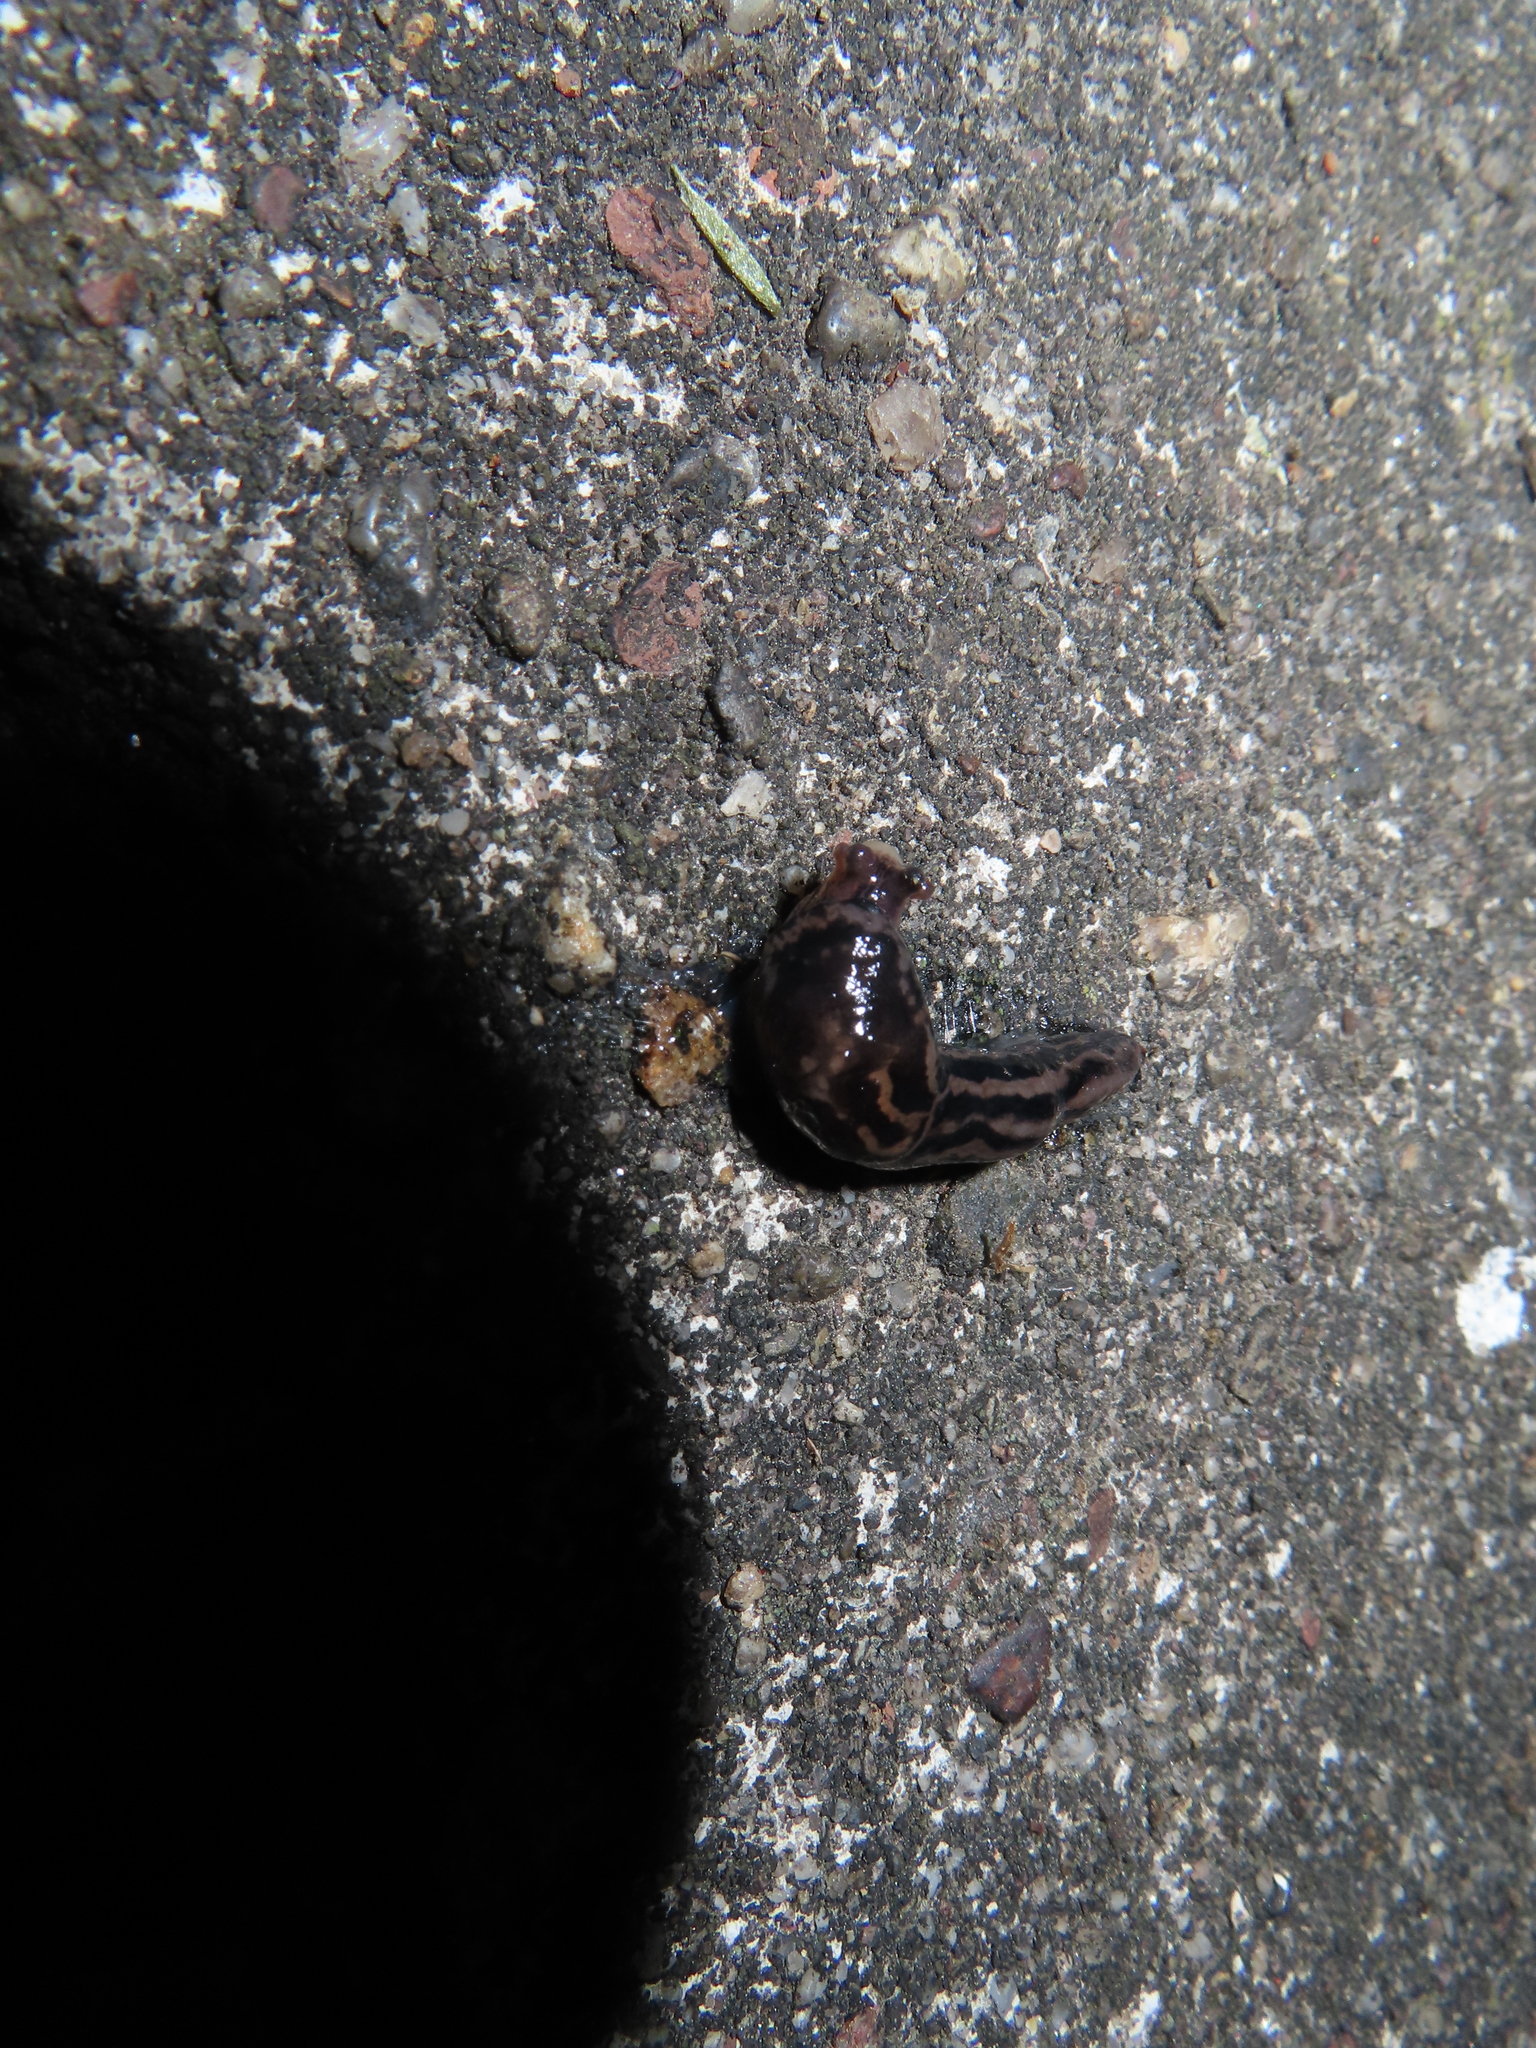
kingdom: Animalia
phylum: Mollusca
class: Gastropoda
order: Stylommatophora
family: Limacidae
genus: Limax
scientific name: Limax maximus
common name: Great grey slug
